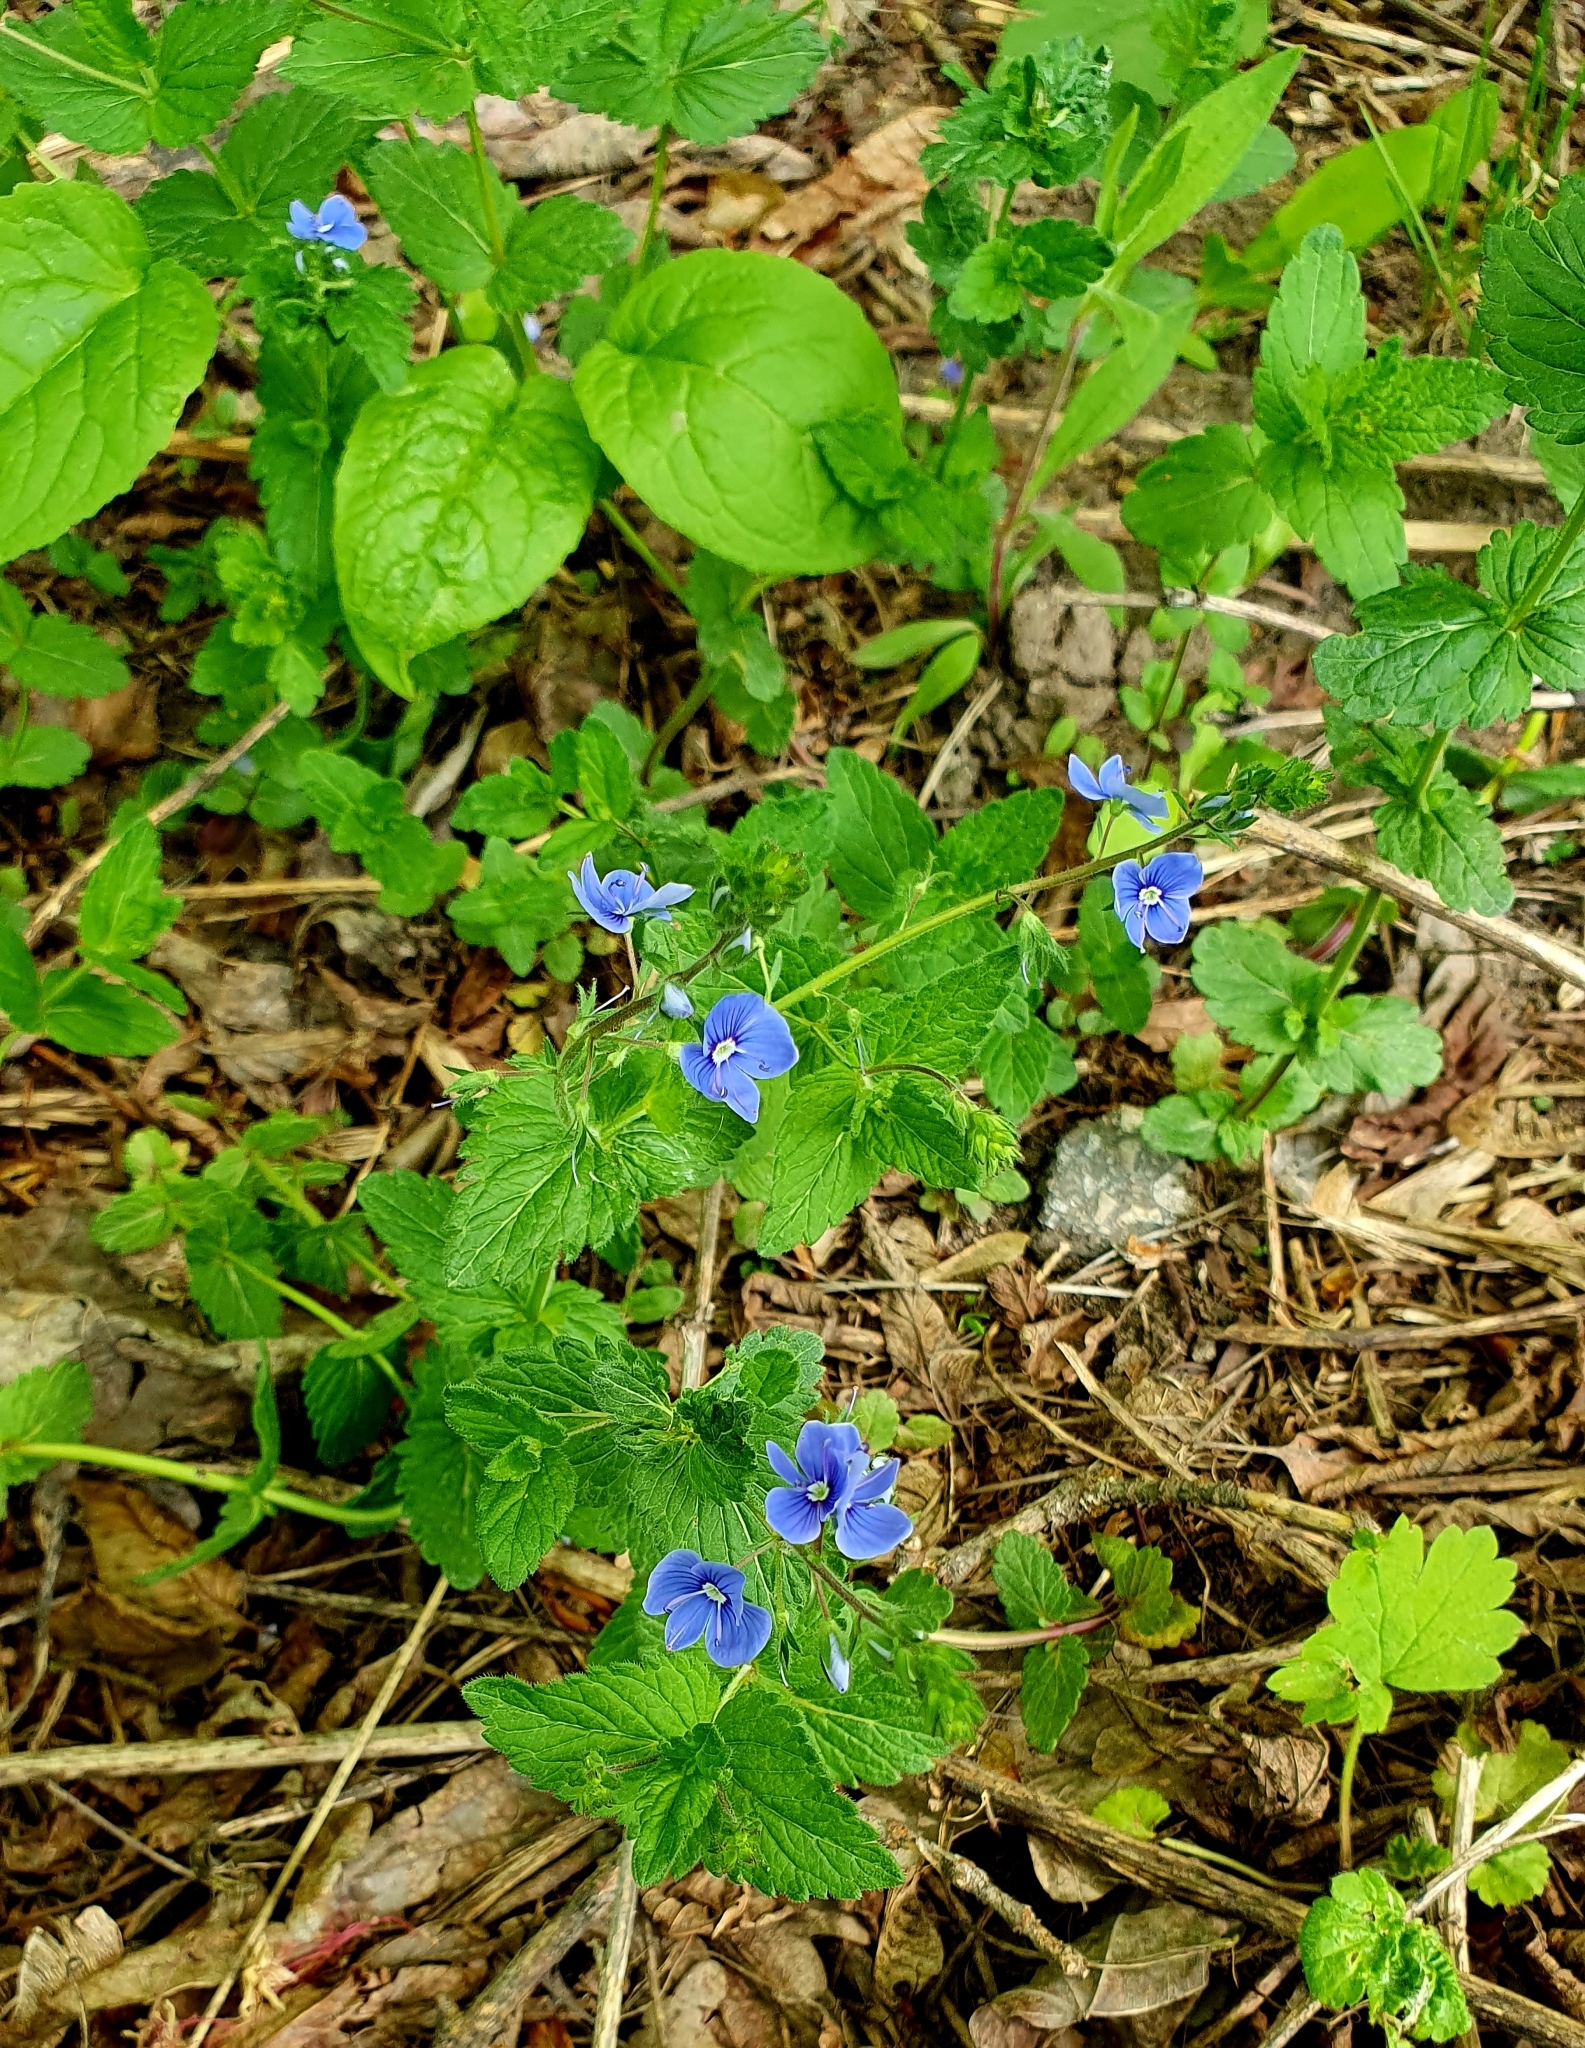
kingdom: Plantae
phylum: Tracheophyta
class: Magnoliopsida
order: Lamiales
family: Plantaginaceae
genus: Veronica
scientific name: Veronica chamaedrys
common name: Germander speedwell
